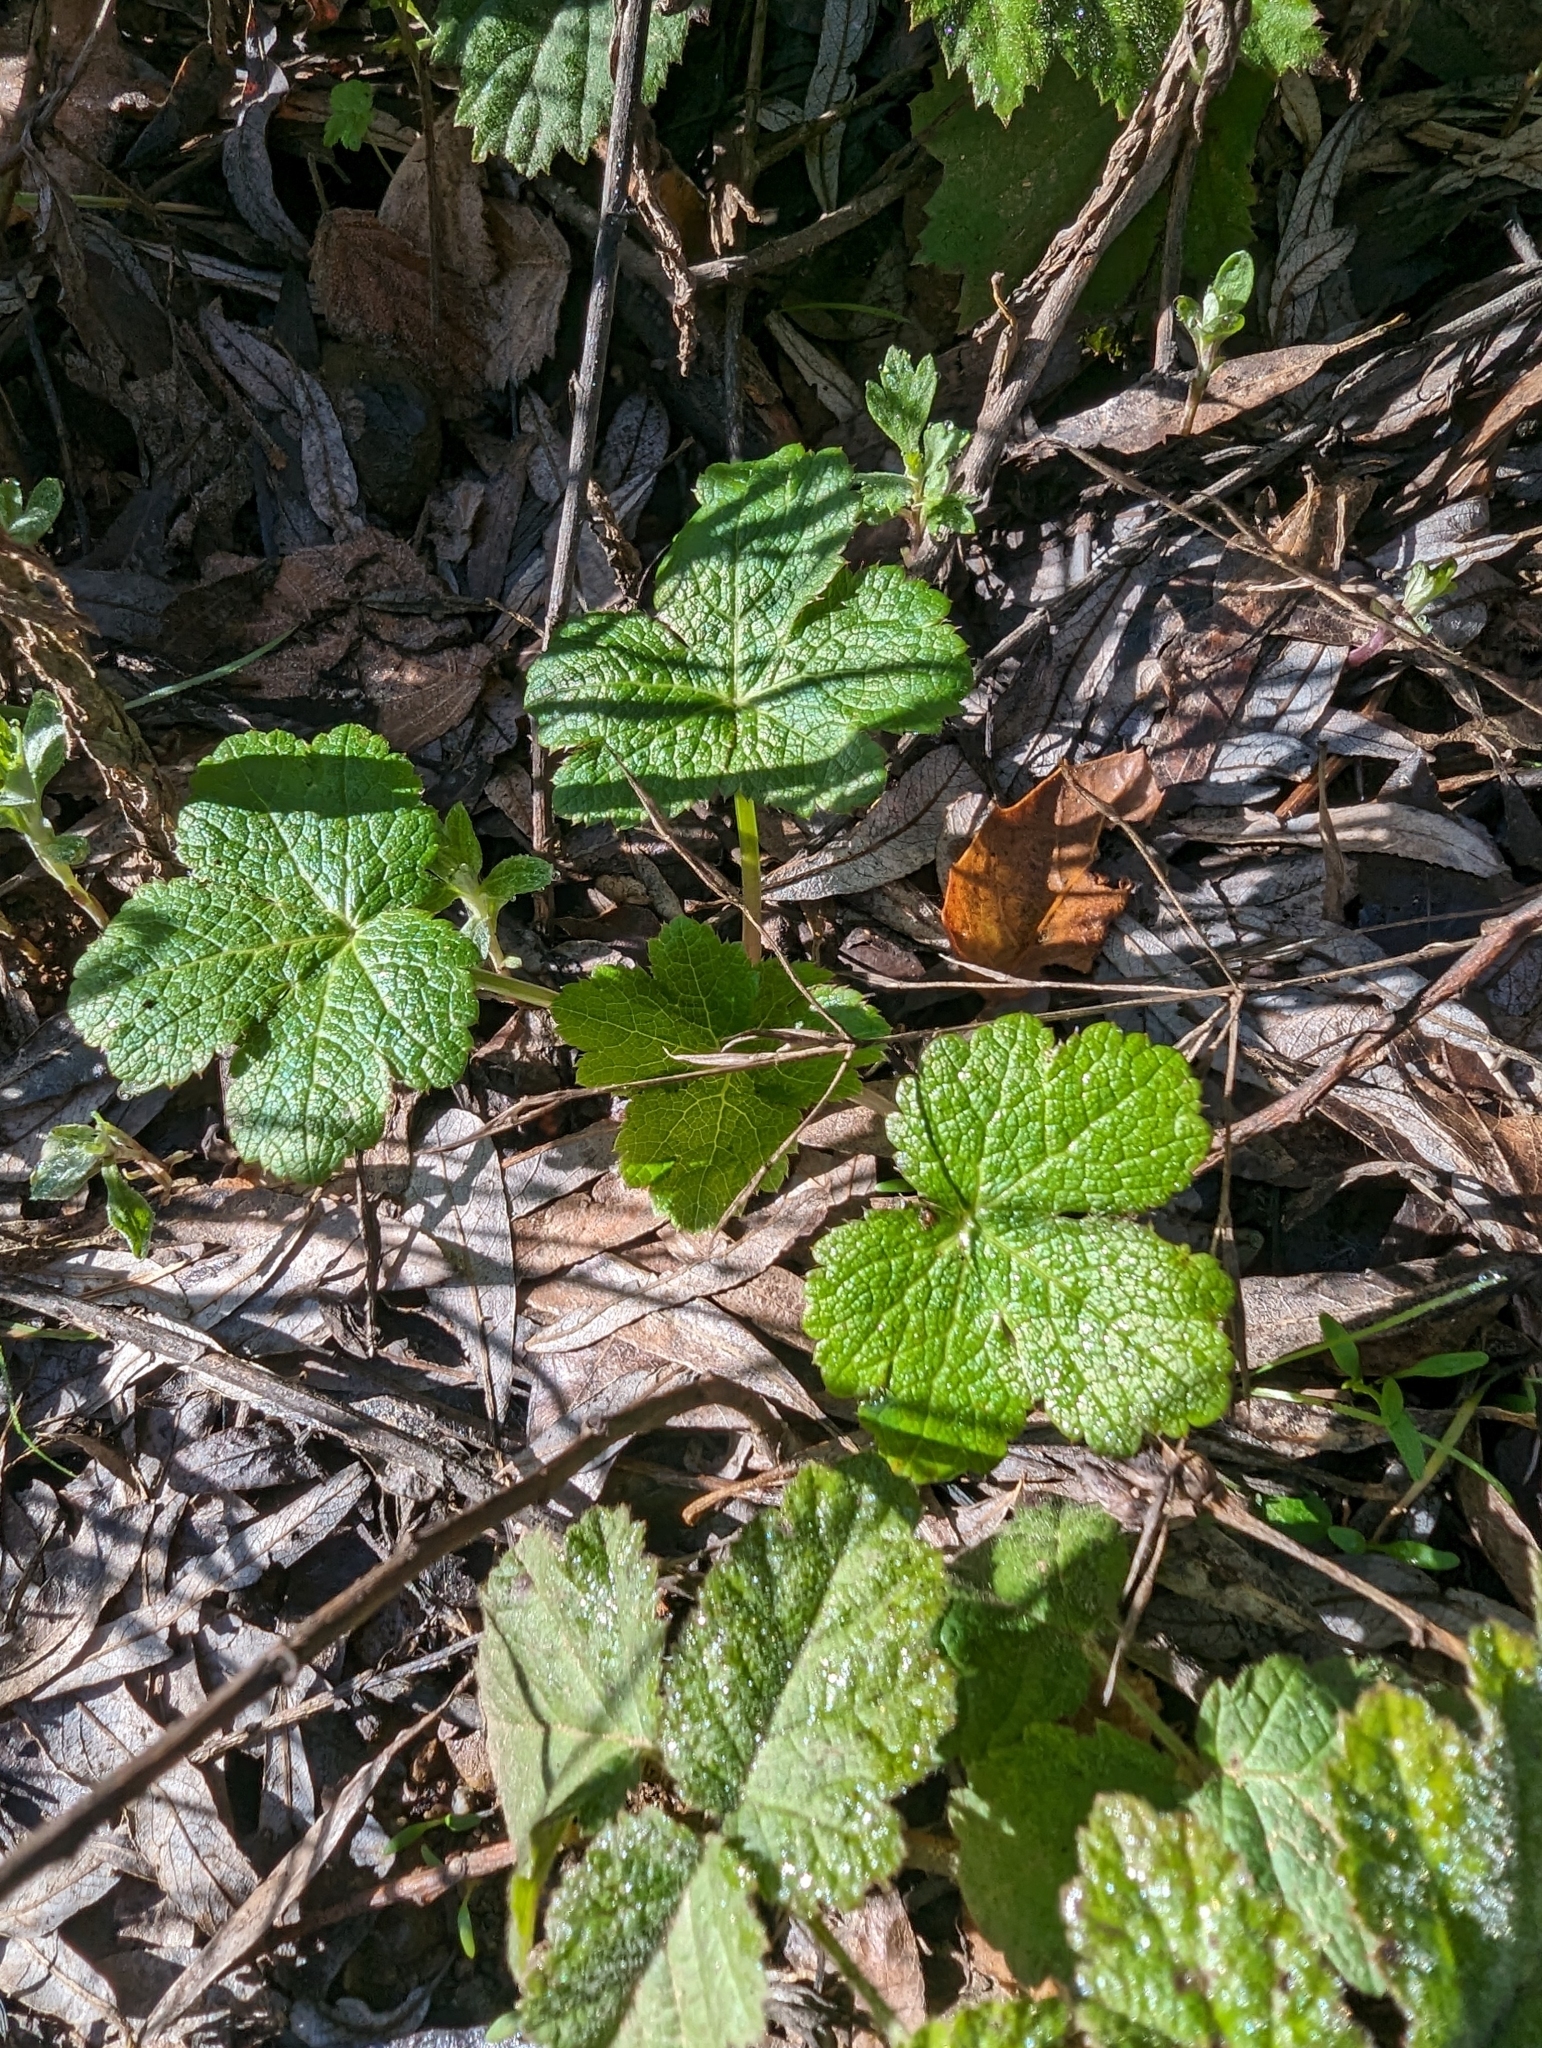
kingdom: Plantae
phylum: Tracheophyta
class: Magnoliopsida
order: Apiales
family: Apiaceae
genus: Sanicula
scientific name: Sanicula crassicaulis
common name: Western snakeroot
